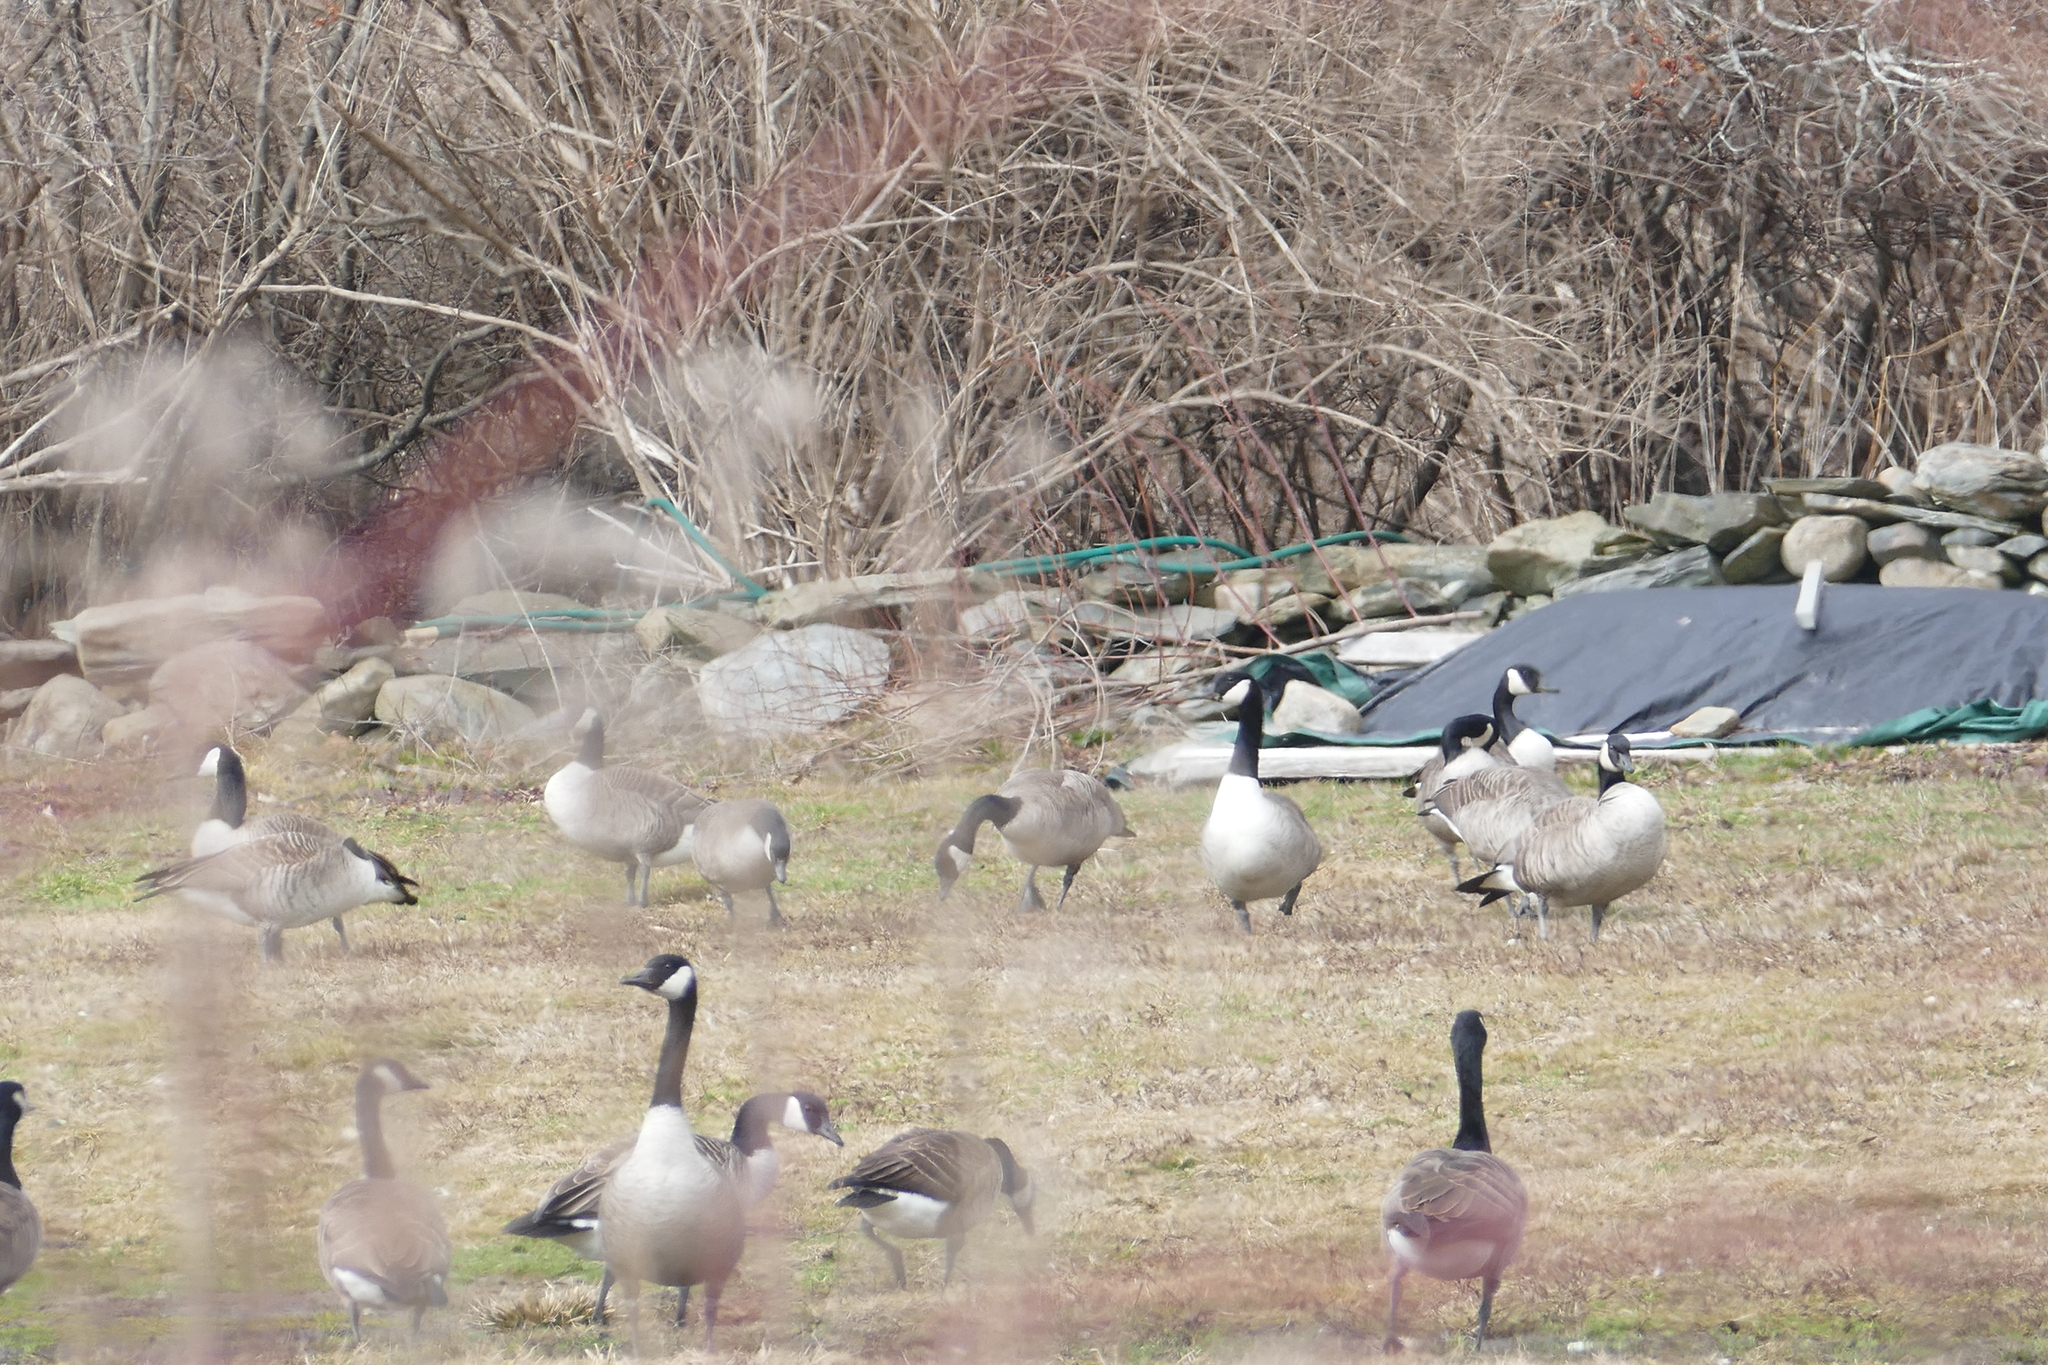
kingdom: Animalia
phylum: Chordata
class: Aves
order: Anseriformes
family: Anatidae
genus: Branta
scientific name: Branta canadensis
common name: Canada goose
